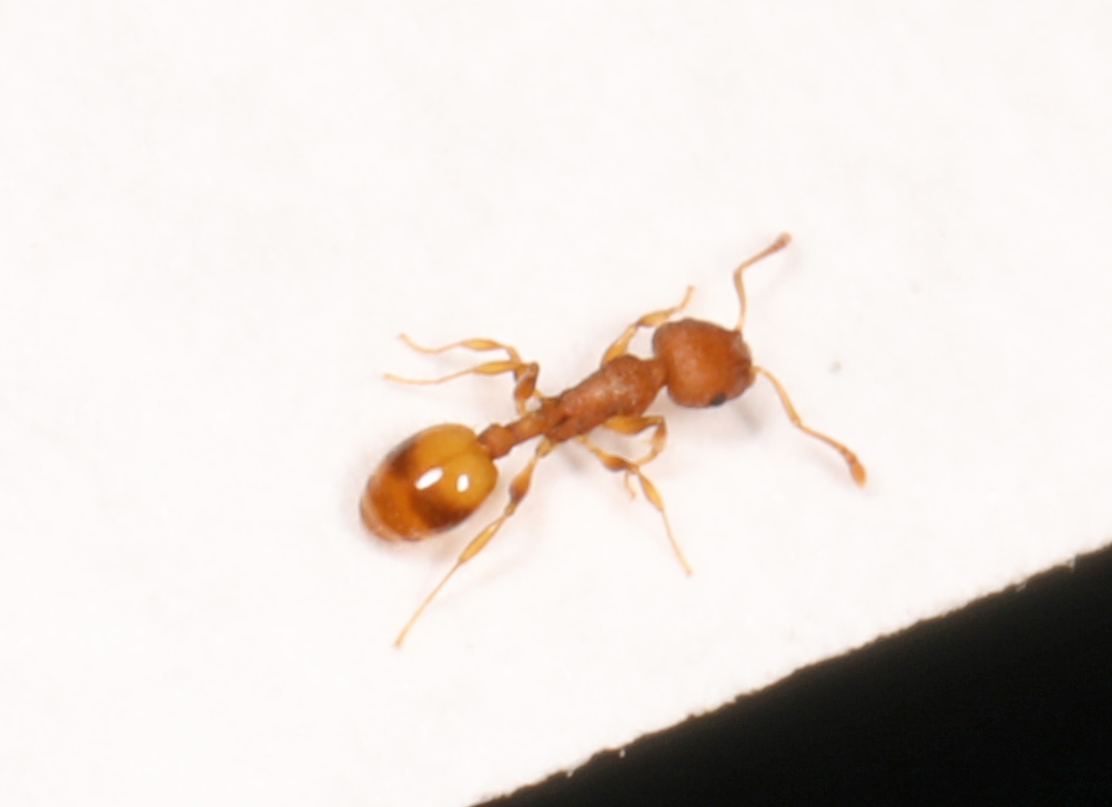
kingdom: Animalia
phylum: Arthropoda
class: Insecta
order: Hymenoptera
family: Formicidae
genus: Temnothorax
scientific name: Temnothorax curvispinosus
